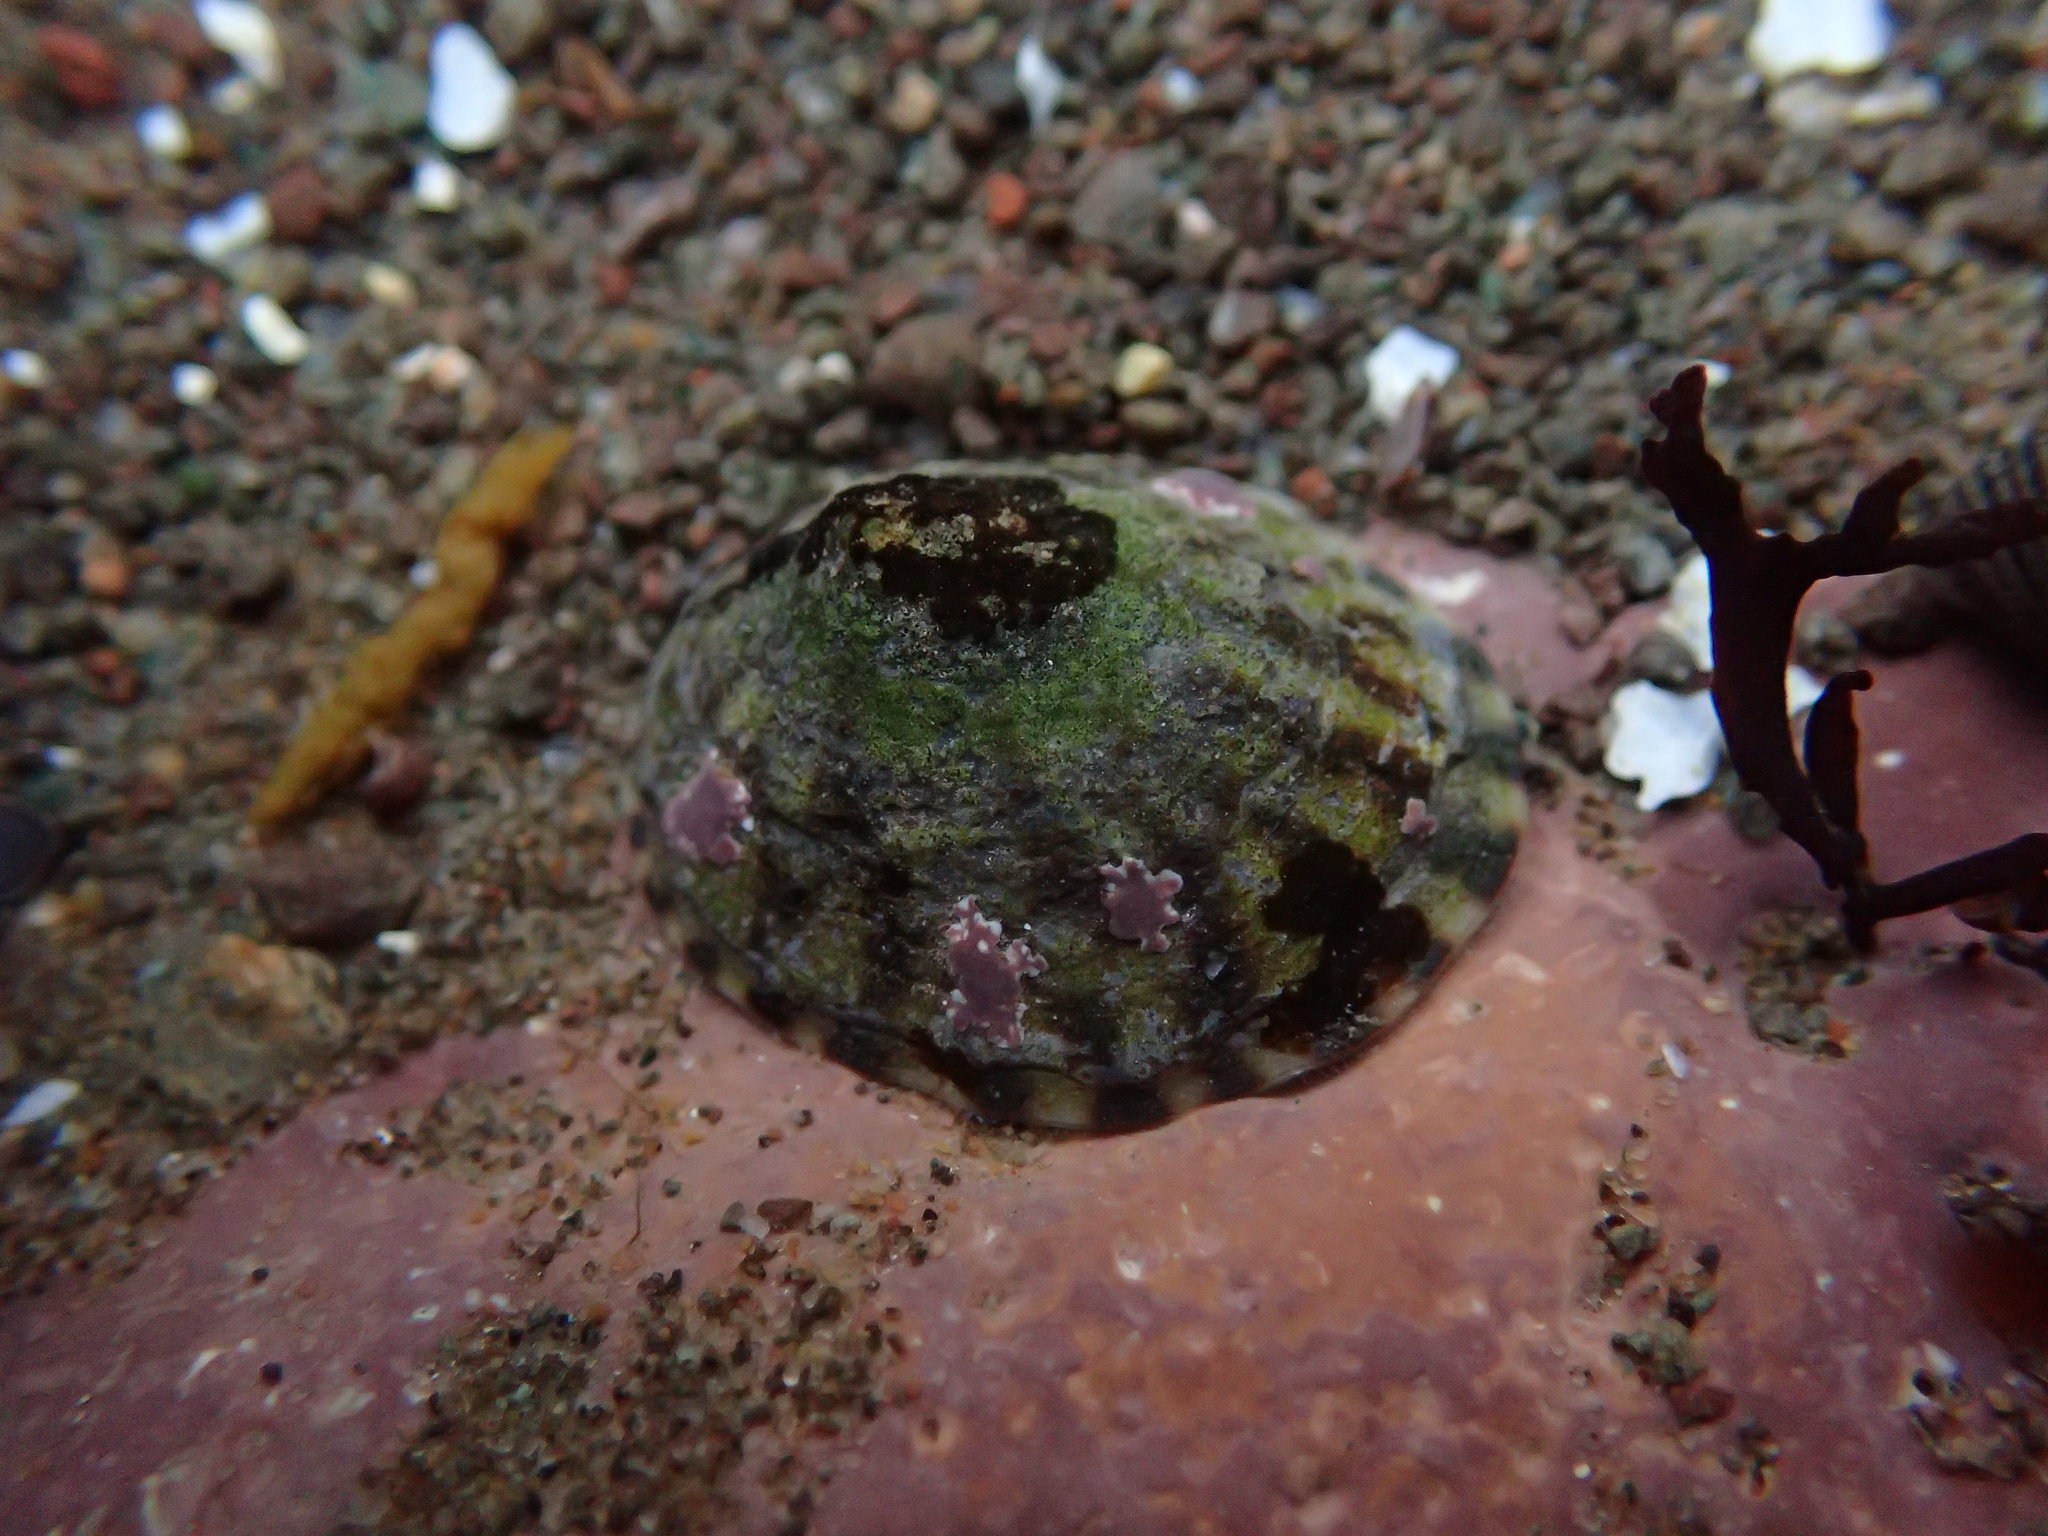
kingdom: Animalia
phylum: Mollusca
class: Gastropoda
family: Lottiidae
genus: Testudinalia
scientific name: Testudinalia testudinalis
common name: Common tortoiseshell limpet
